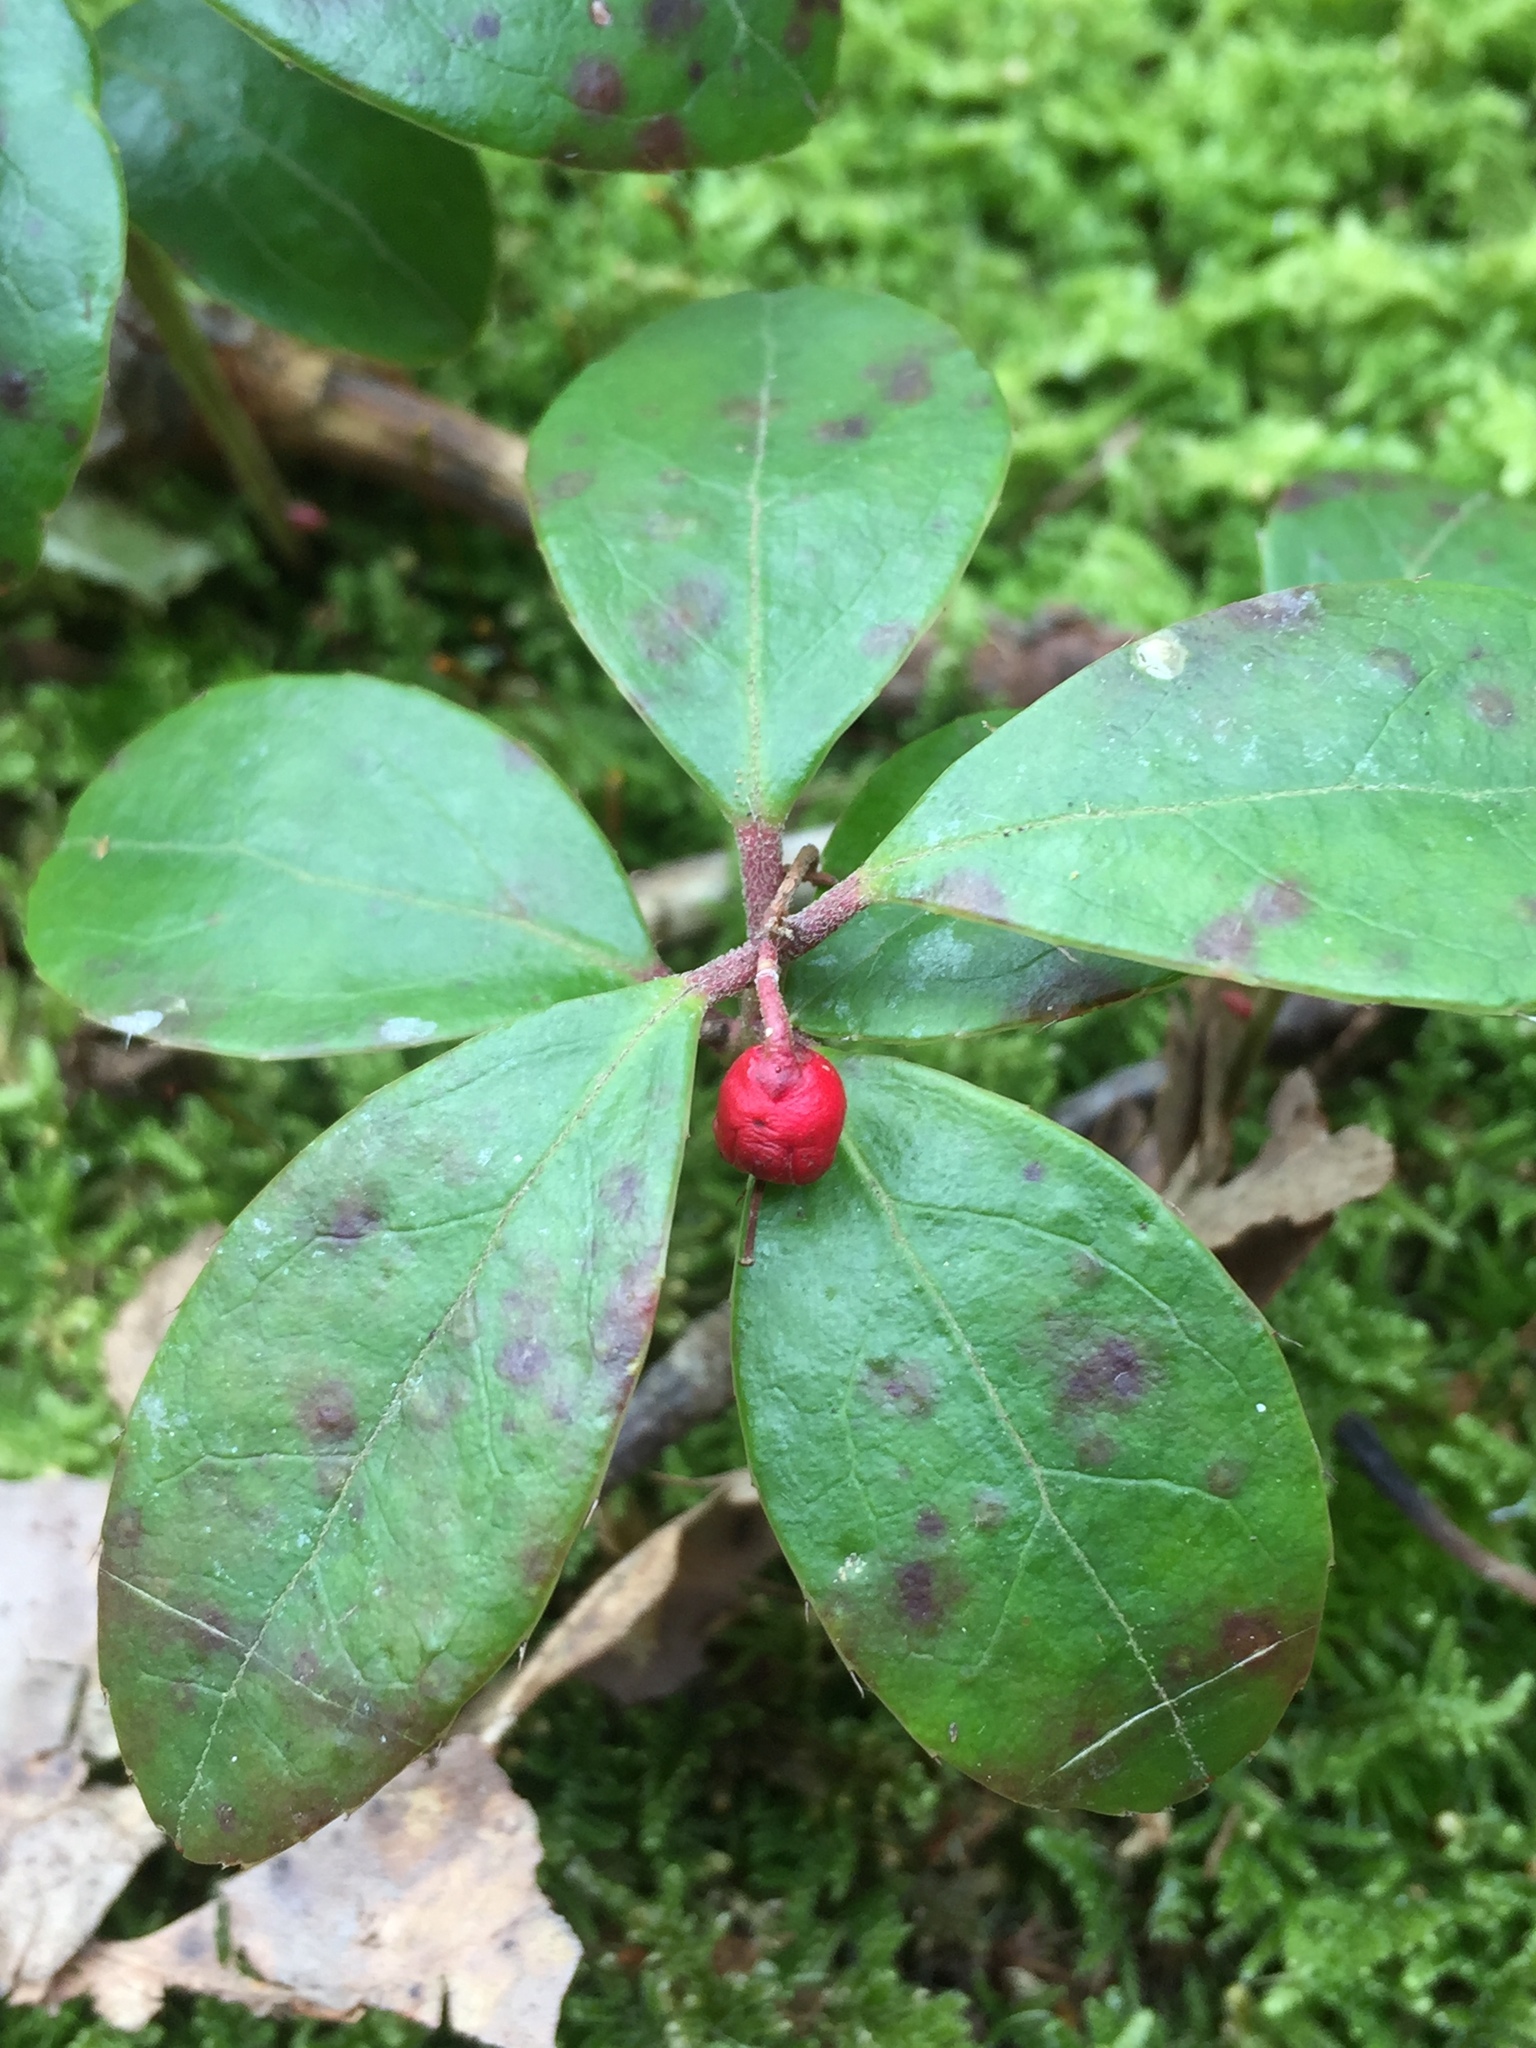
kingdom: Plantae
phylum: Tracheophyta
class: Magnoliopsida
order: Ericales
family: Ericaceae
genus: Gaultheria
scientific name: Gaultheria procumbens
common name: Checkerberry
